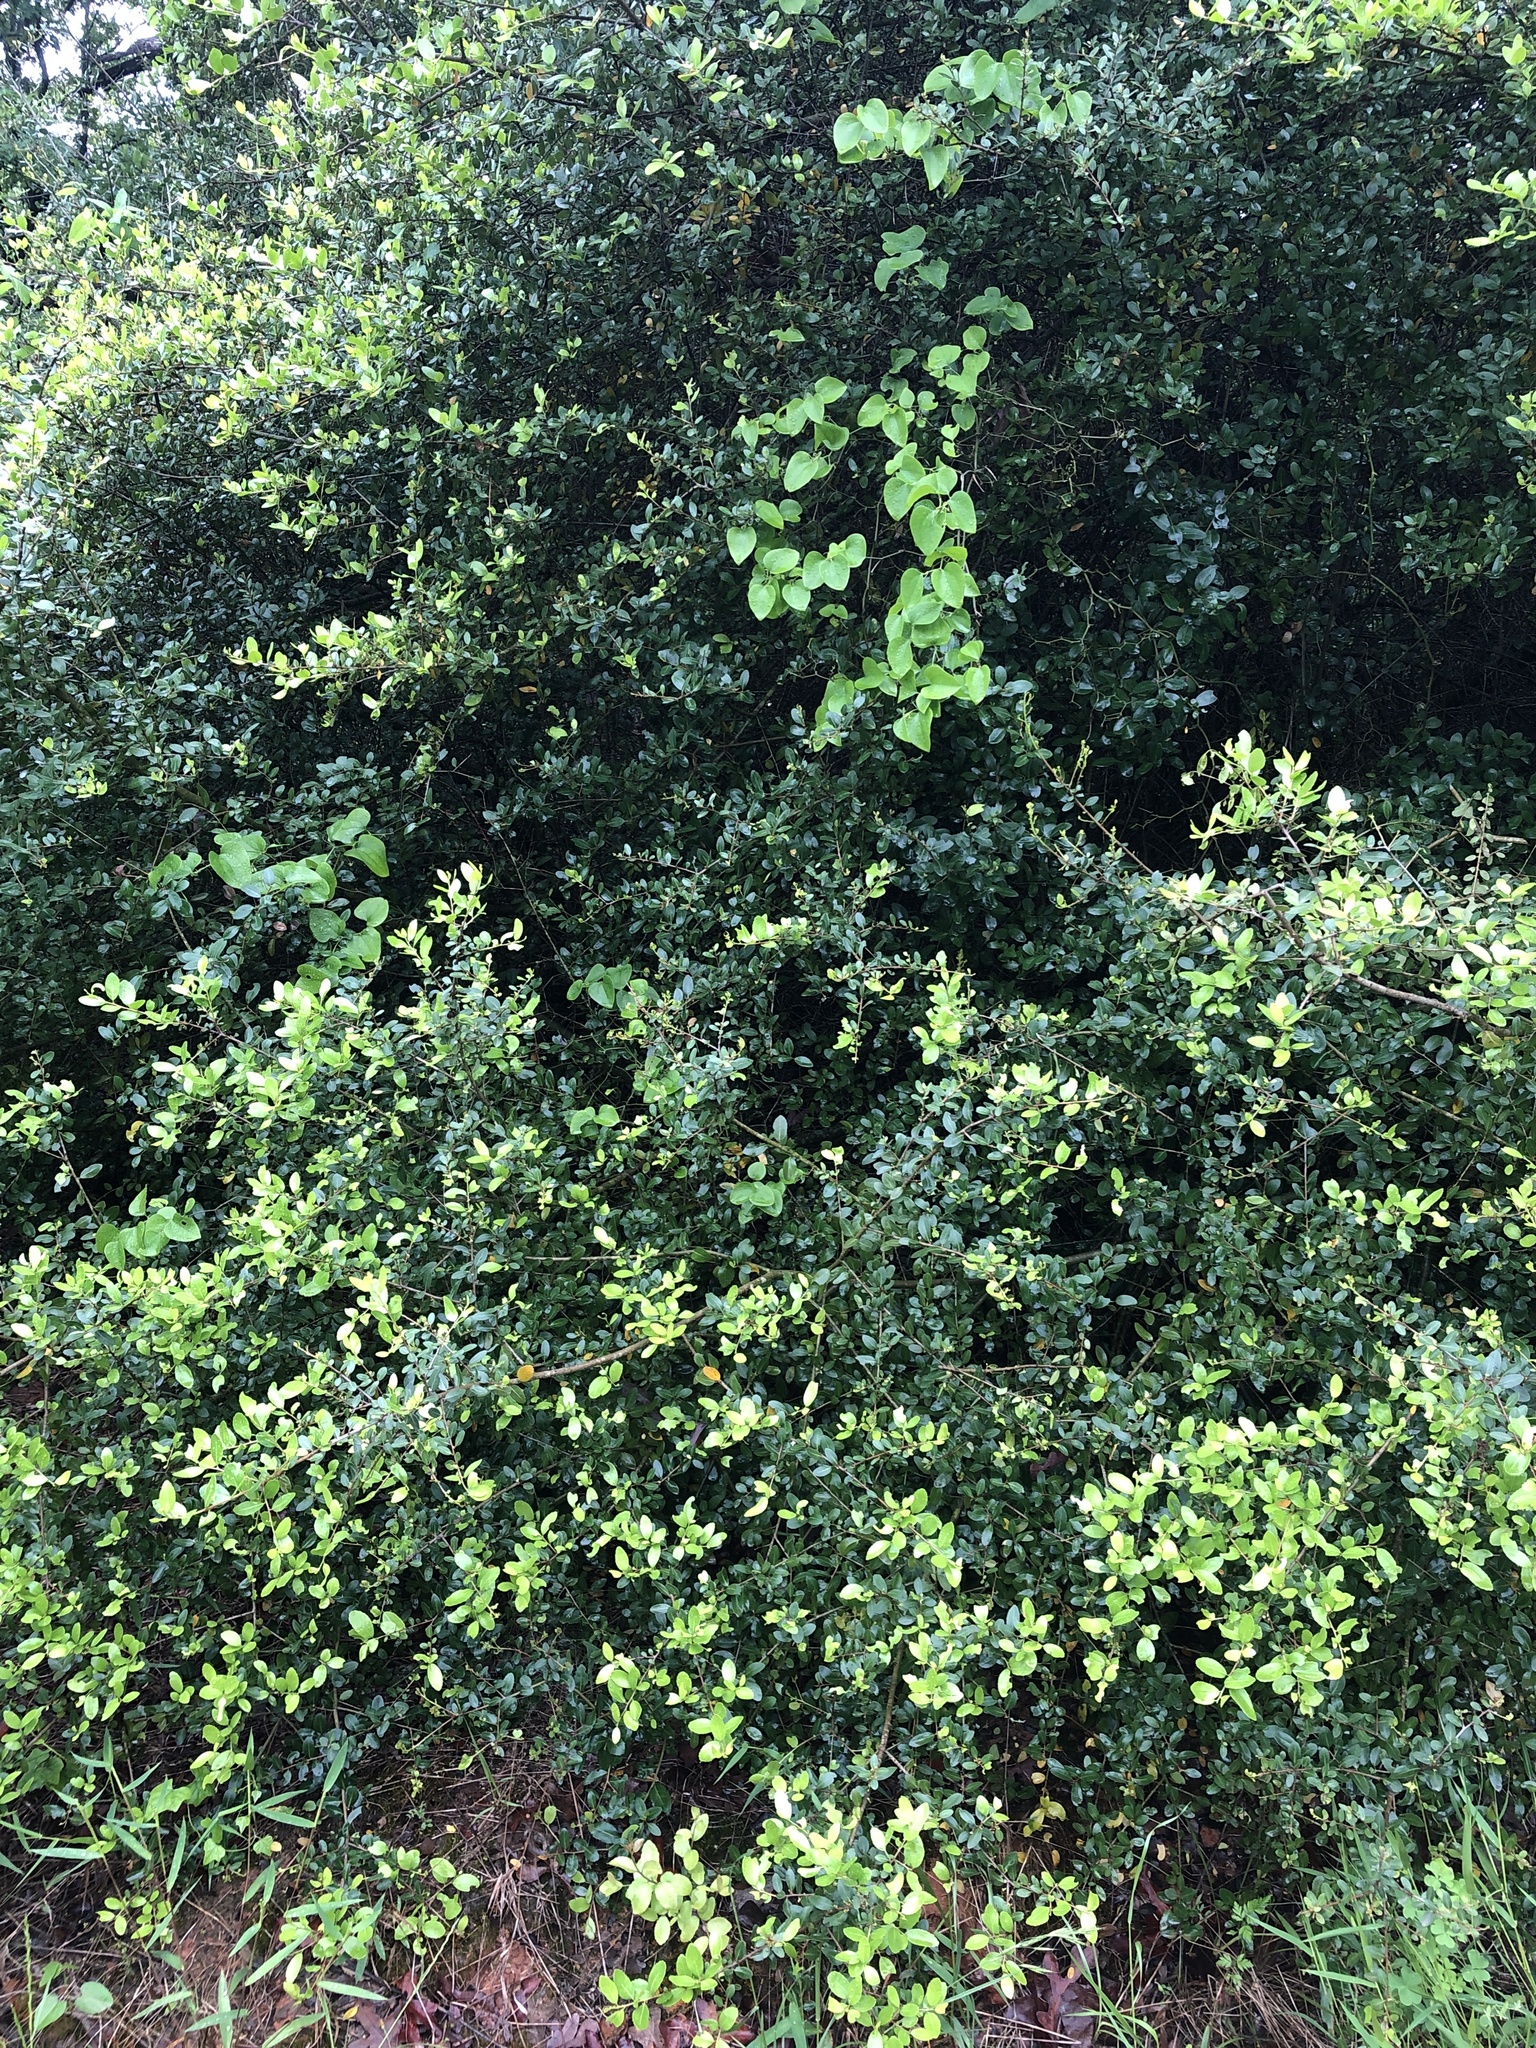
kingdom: Plantae
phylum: Tracheophyta
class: Magnoliopsida
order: Aquifoliales
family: Aquifoliaceae
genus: Ilex
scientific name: Ilex vomitoria
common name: Yaupon holly
